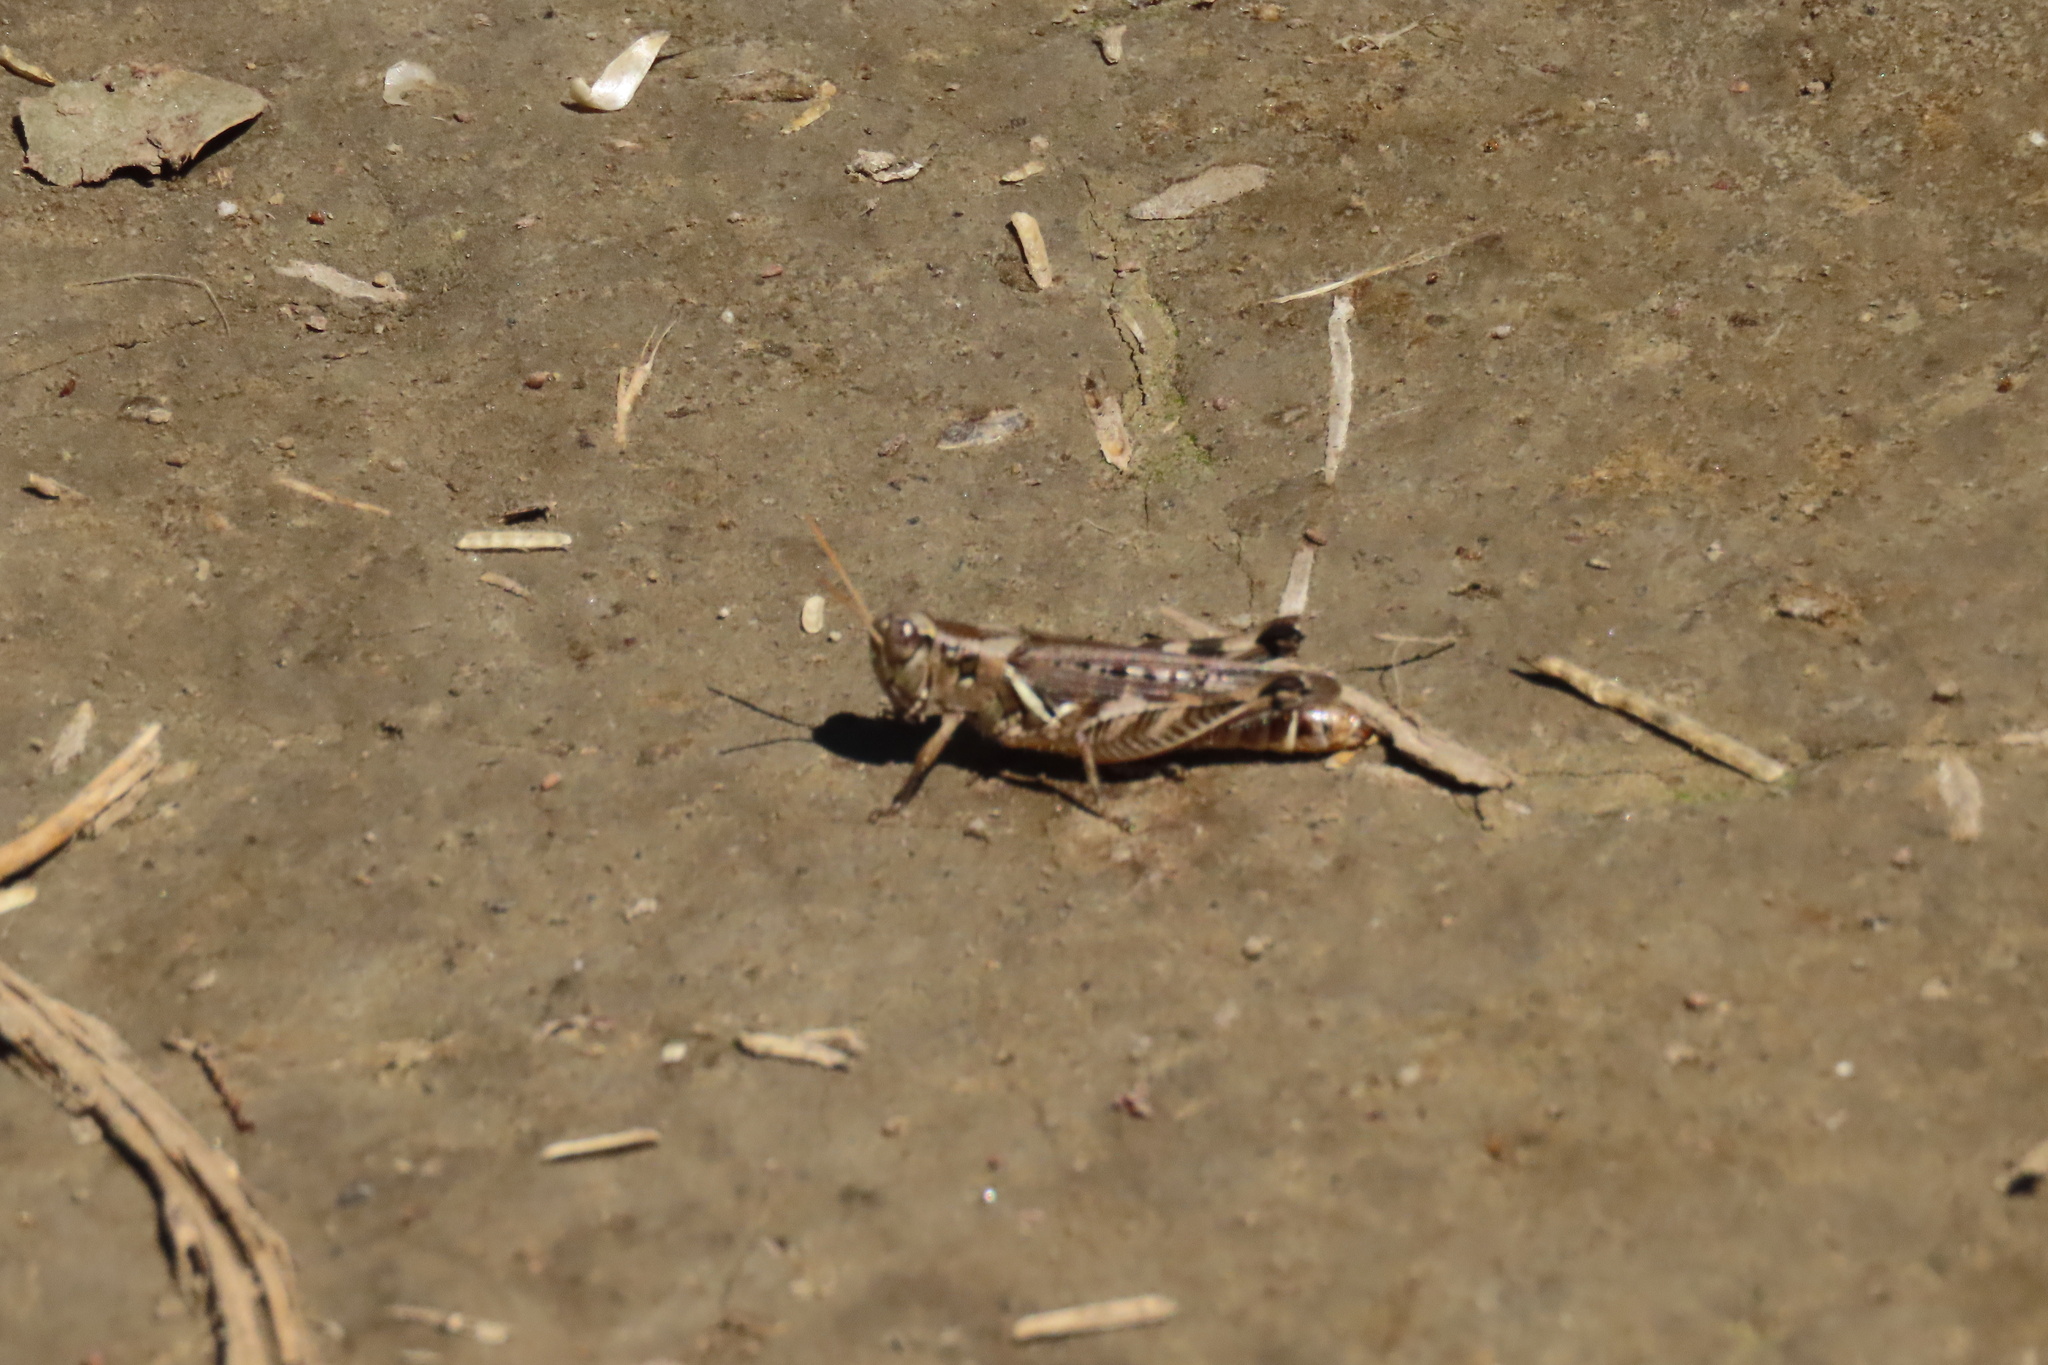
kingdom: Animalia
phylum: Arthropoda
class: Insecta
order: Orthoptera
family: Acrididae
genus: Melanoplus
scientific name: Melanoplus devastator
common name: Devastating grasshopper
